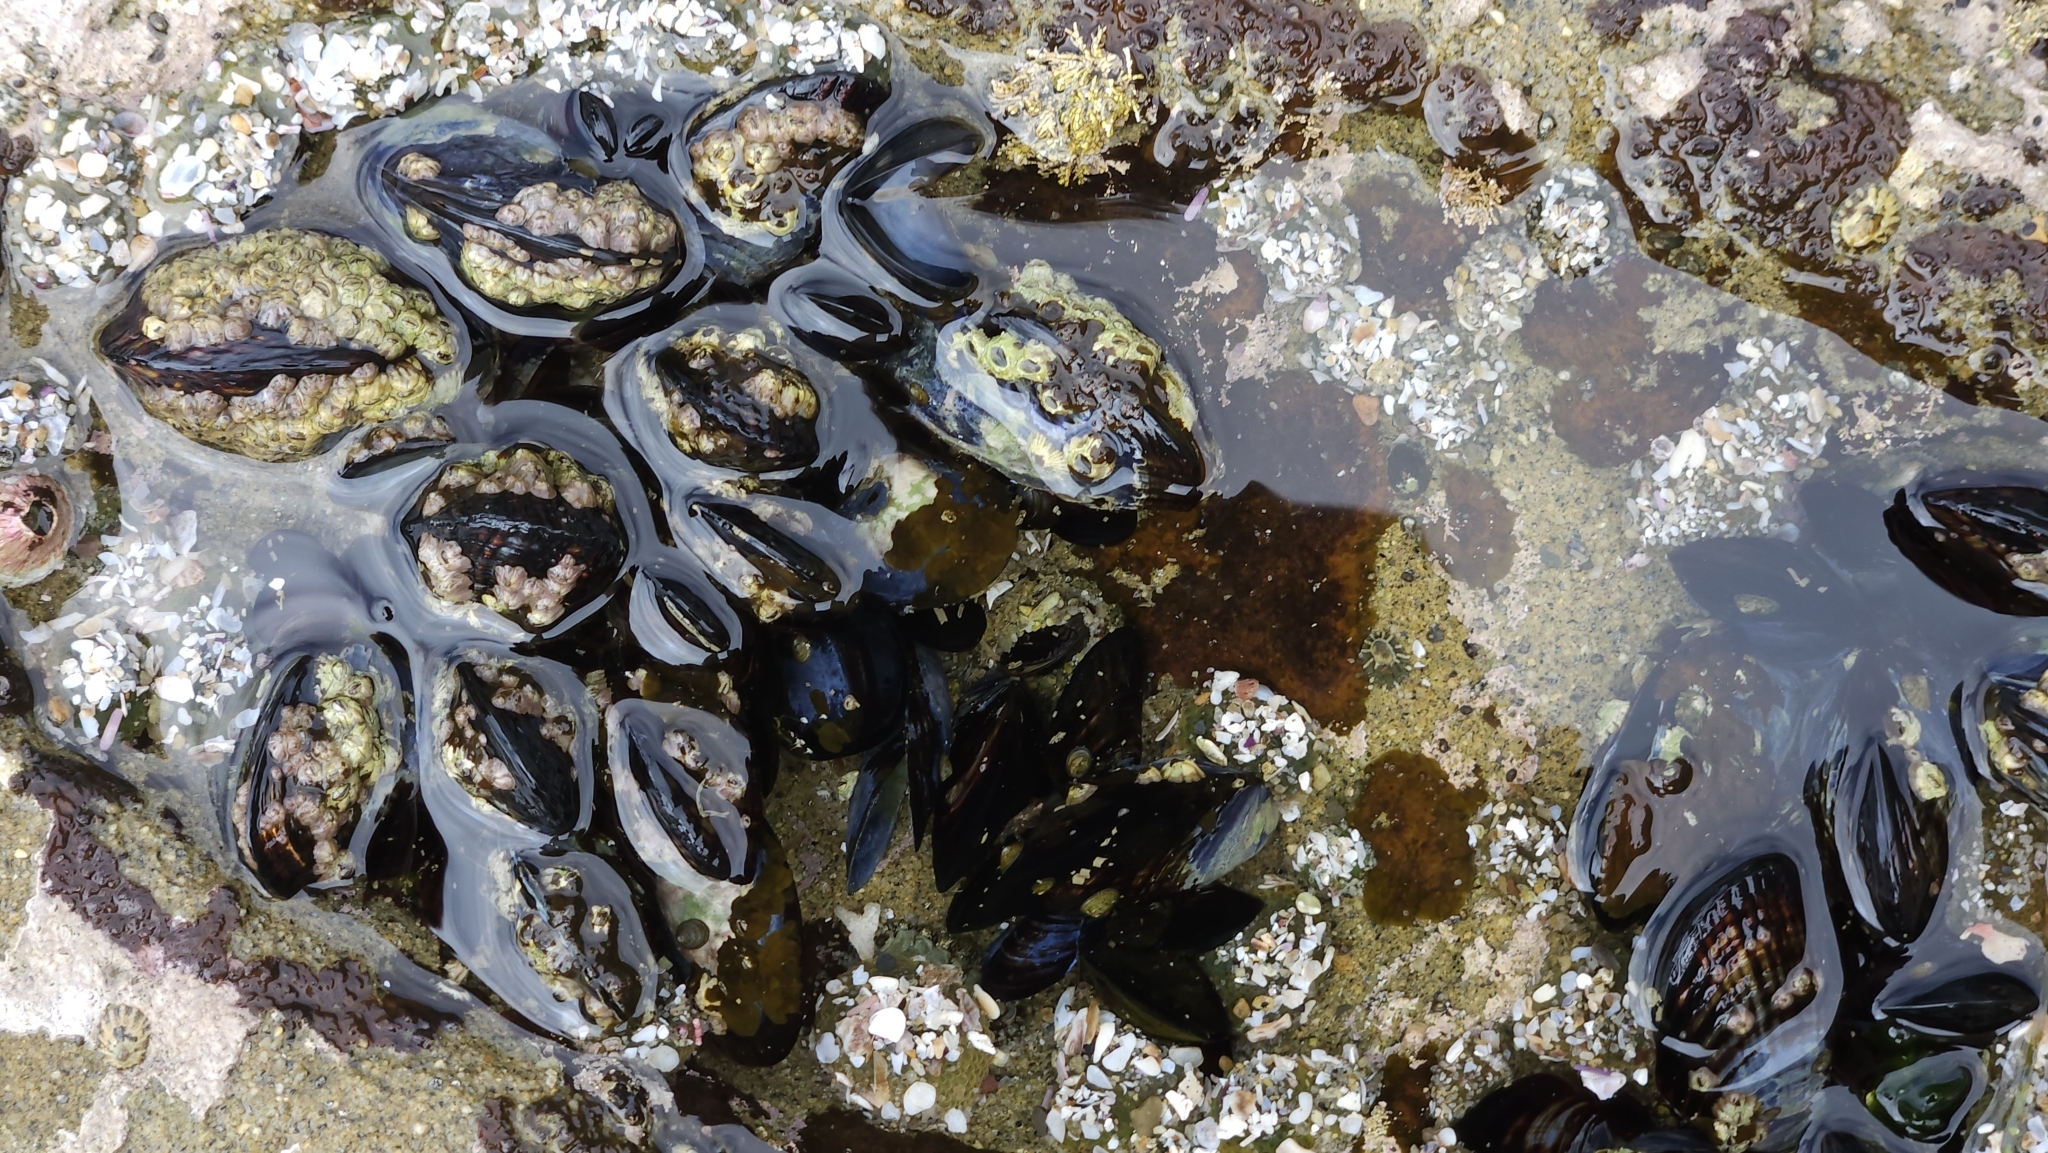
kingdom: Animalia
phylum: Mollusca
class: Bivalvia
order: Mytilida
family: Mytilidae
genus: Mytilus
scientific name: Mytilus californianus
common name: California mussel
